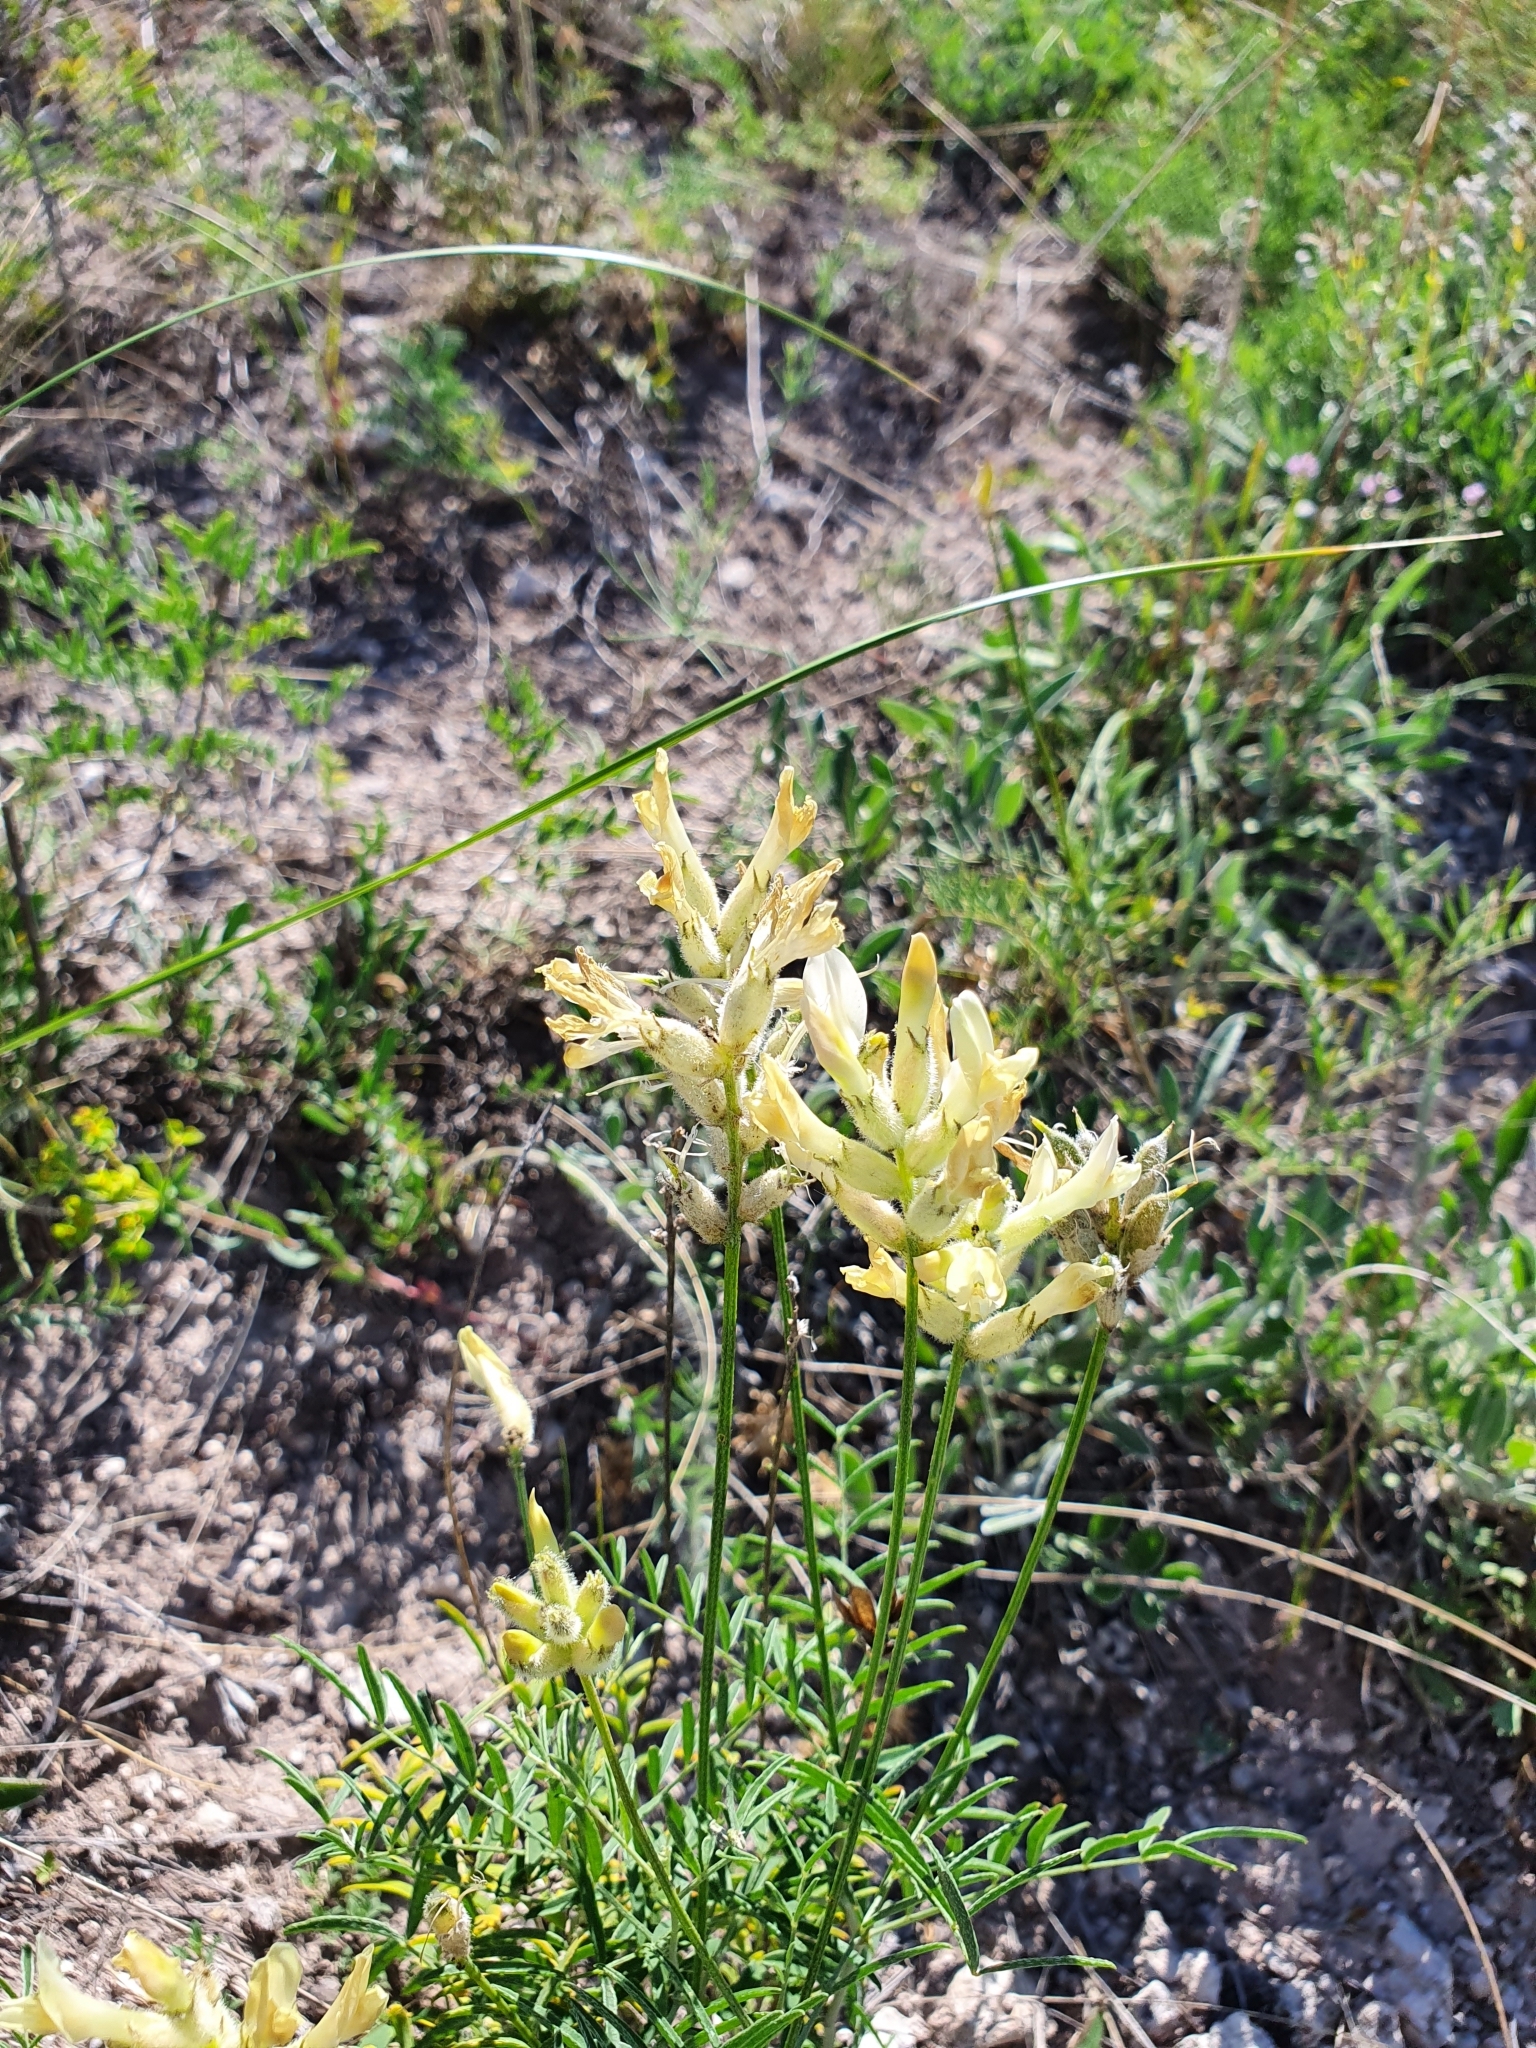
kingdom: Plantae
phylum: Tracheophyta
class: Magnoliopsida
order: Fabales
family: Fabaceae
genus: Astragalus
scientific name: Astragalus zingeri
